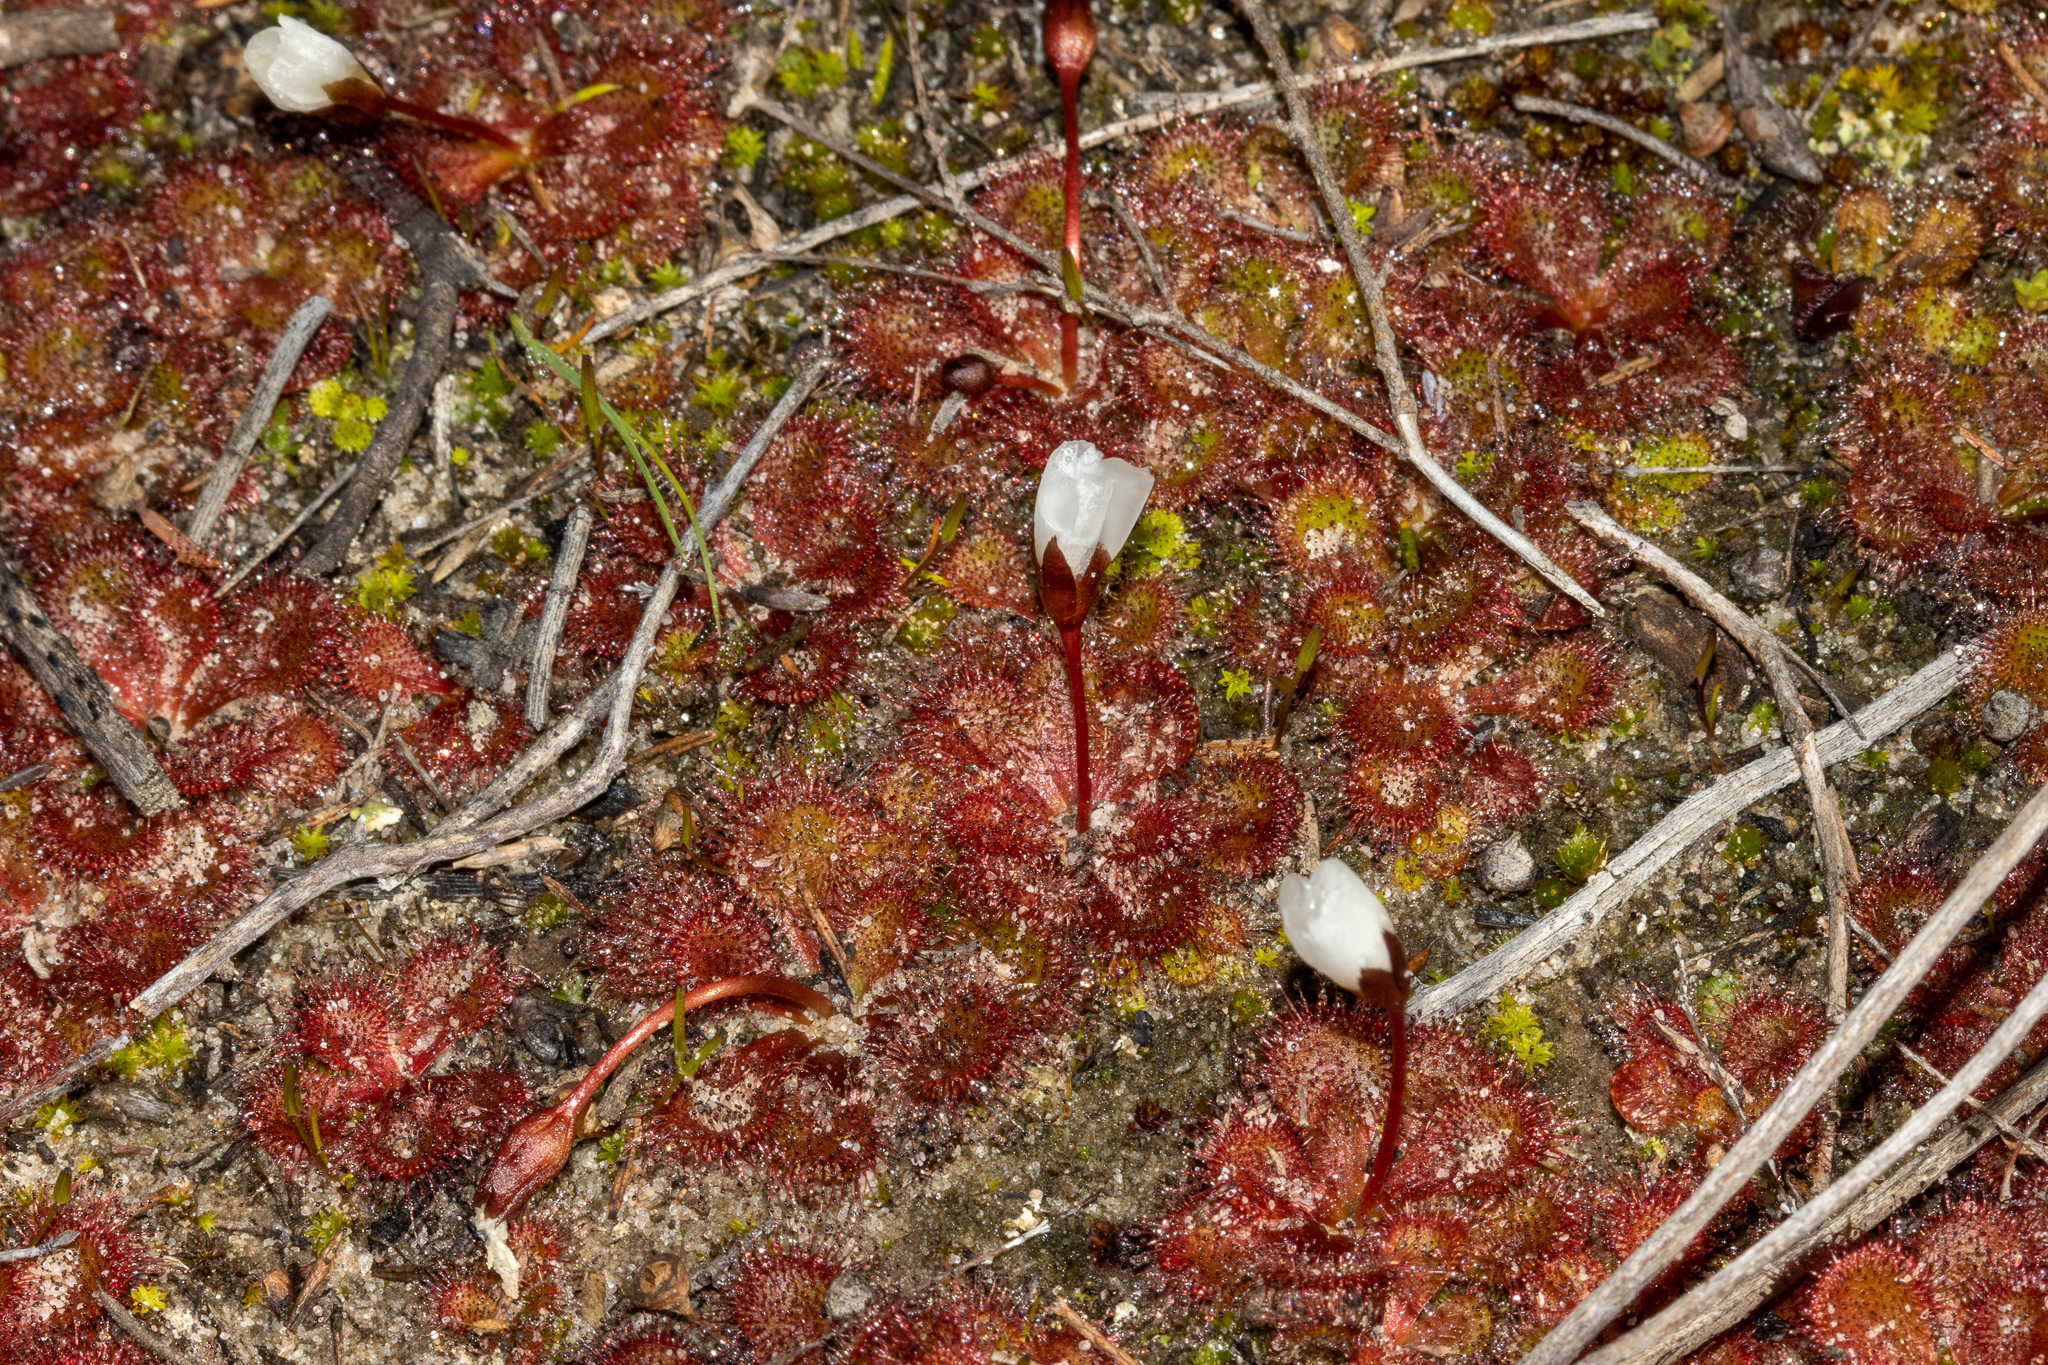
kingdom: Plantae
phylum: Tracheophyta
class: Magnoliopsida
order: Caryophyllales
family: Droseraceae
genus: Drosera
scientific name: Drosera aberrans
